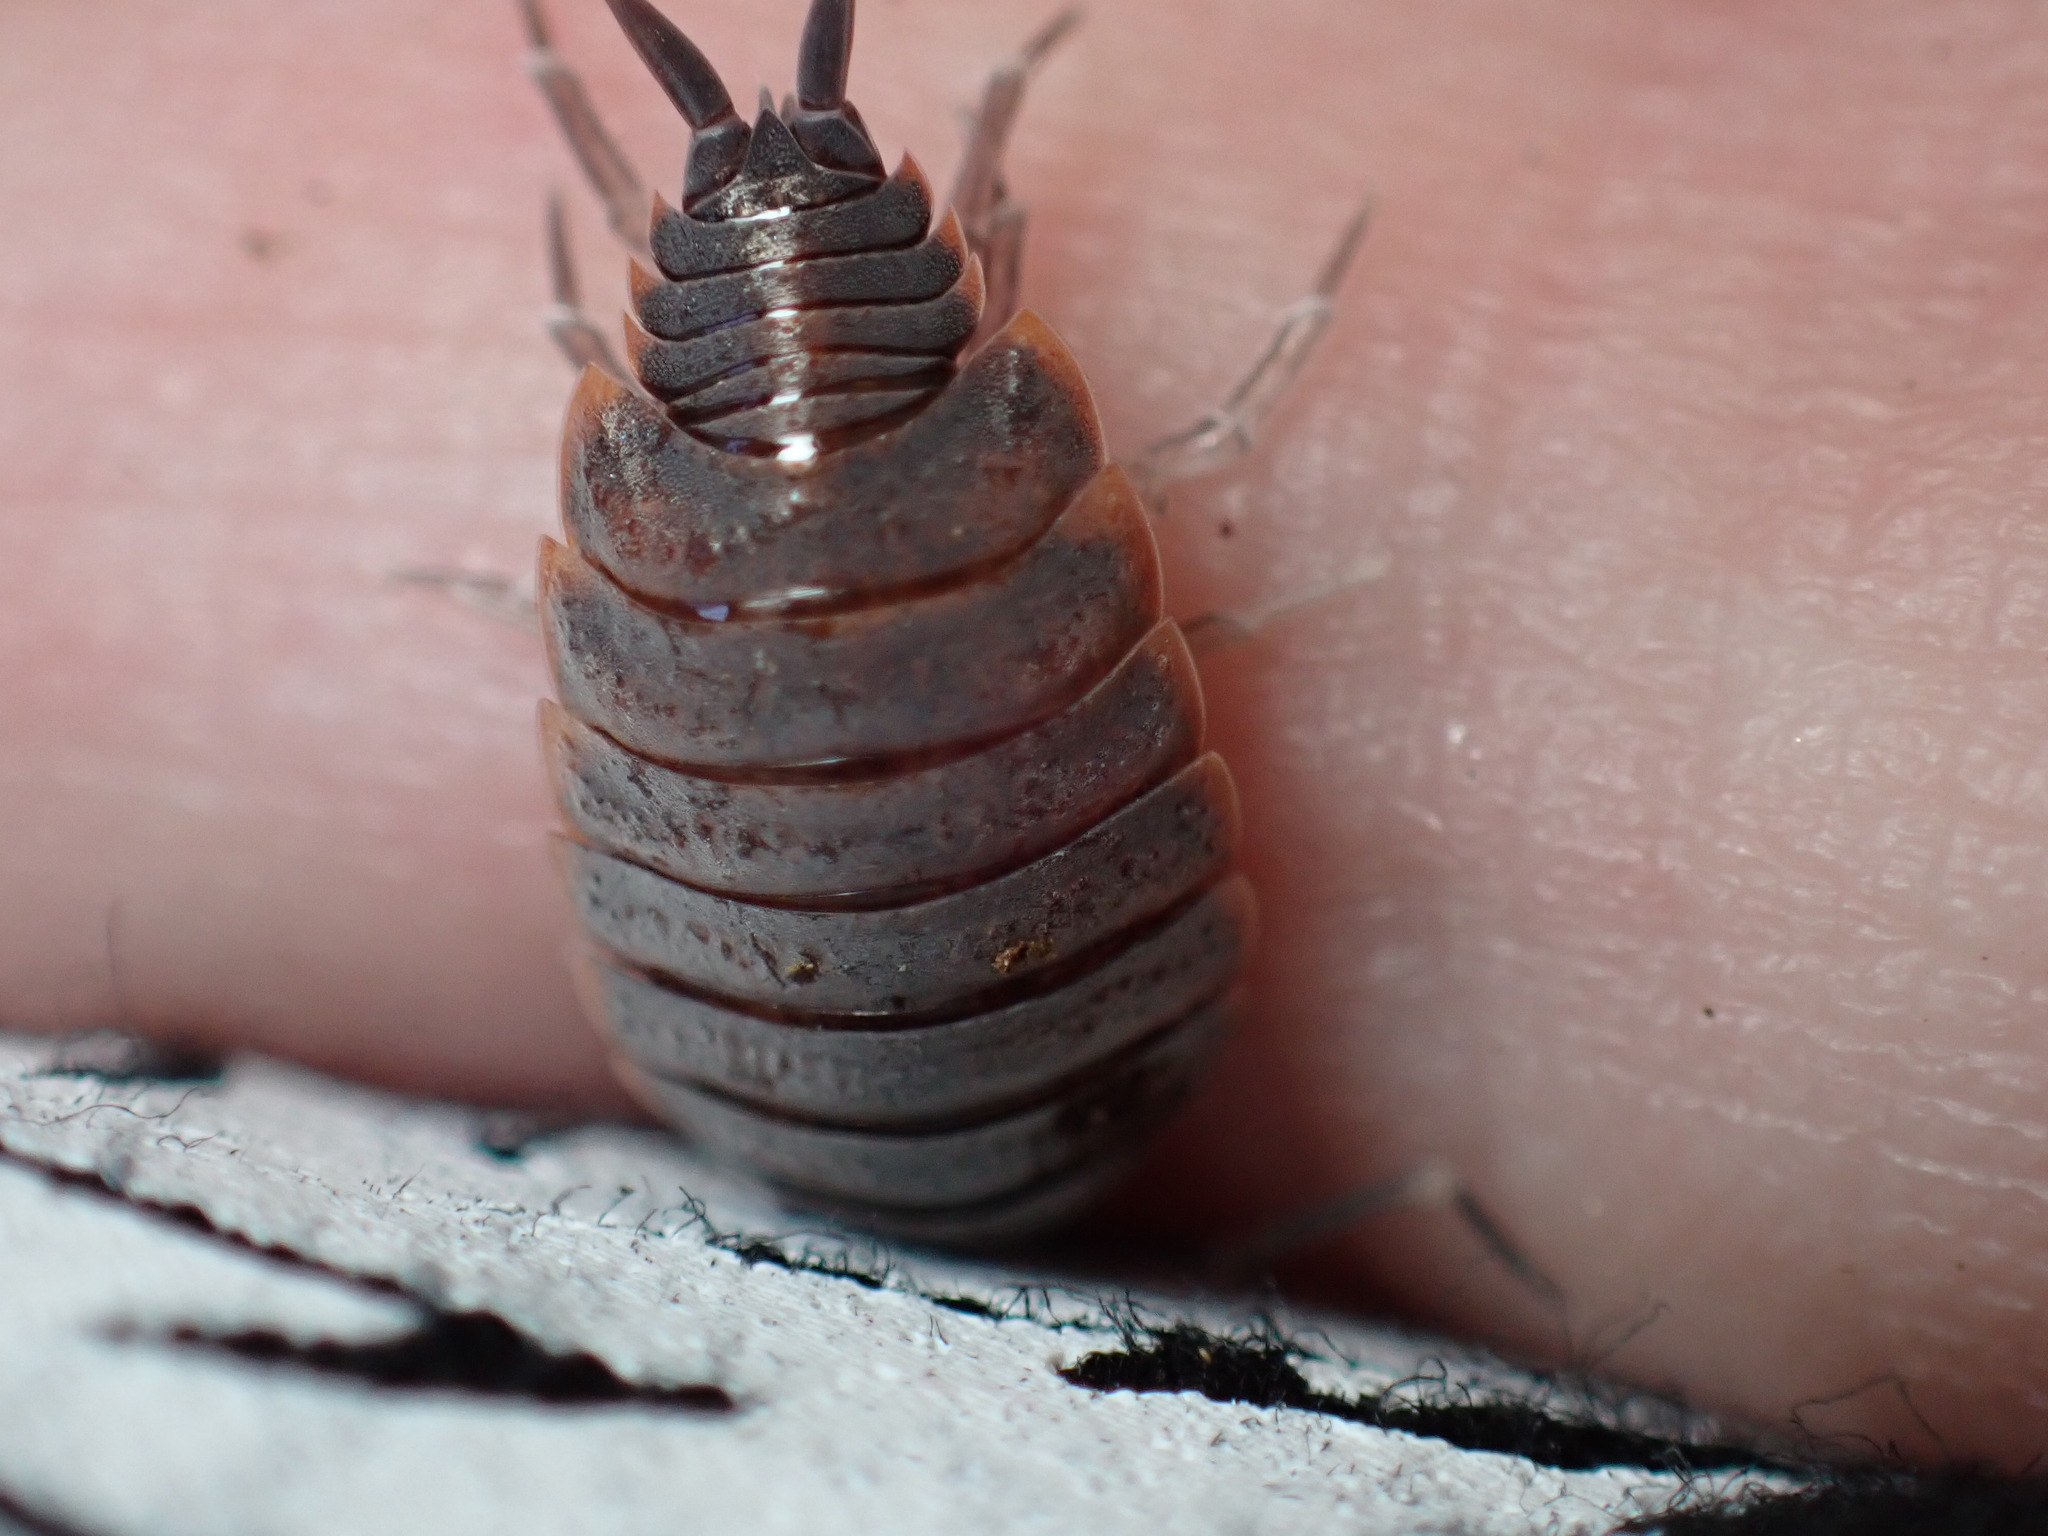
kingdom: Animalia
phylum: Arthropoda
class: Malacostraca
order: Isopoda
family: Porcellionidae
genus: Porcellionides
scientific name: Porcellionides pruinosus
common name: Plum woodlouse
